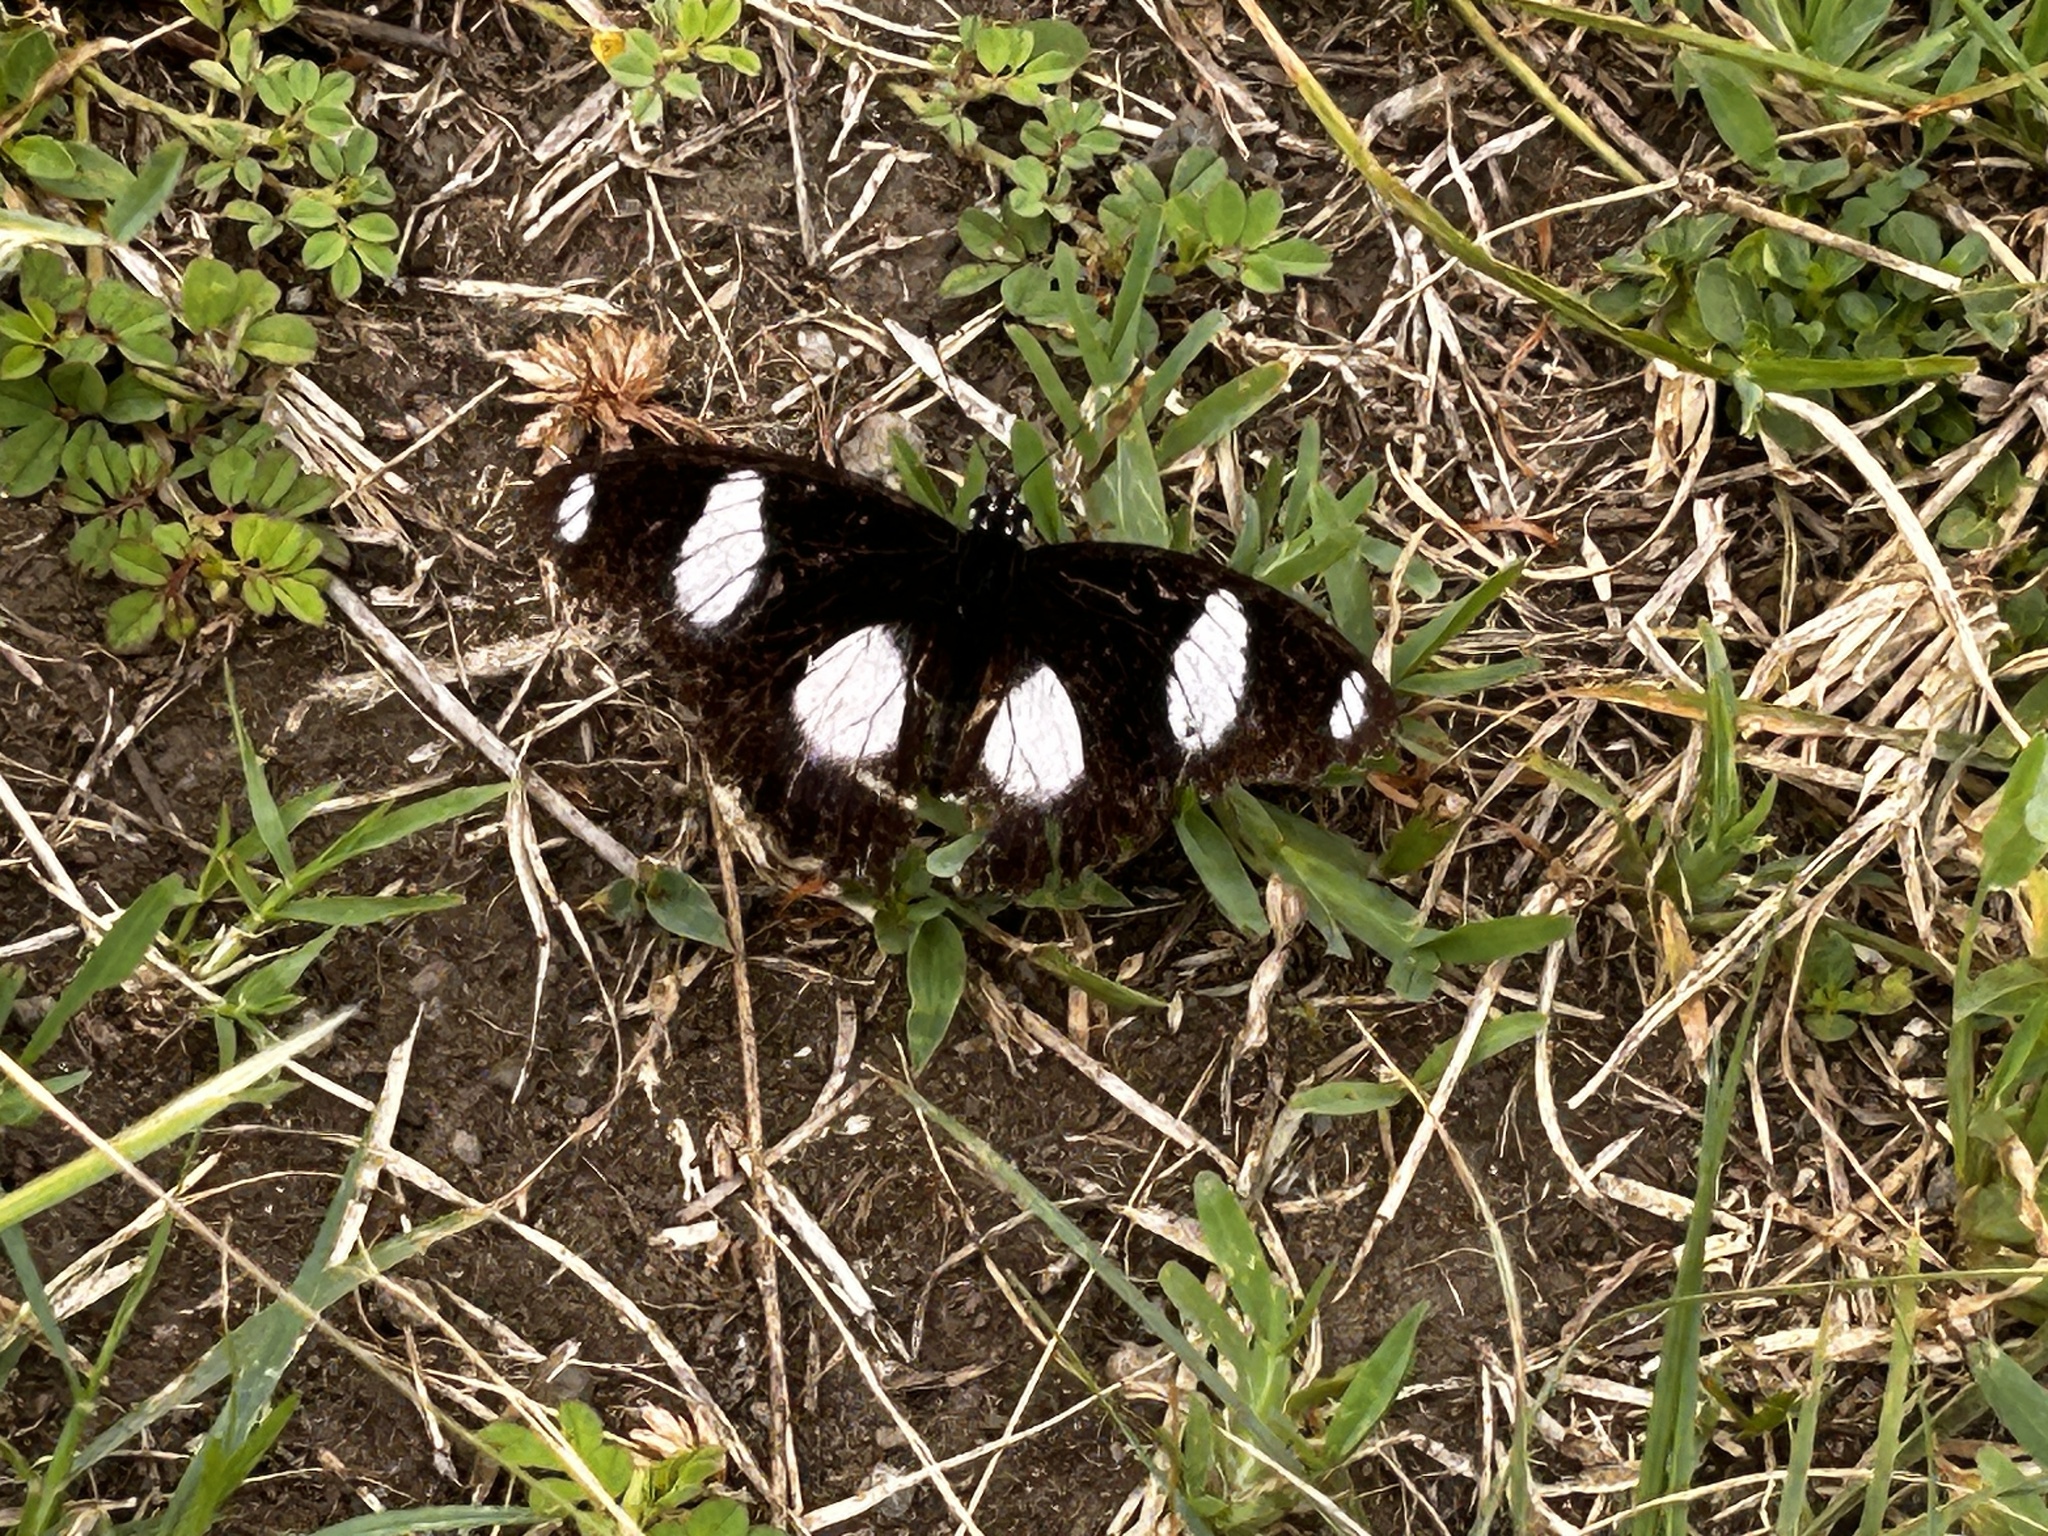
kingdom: Animalia
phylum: Arthropoda
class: Insecta
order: Lepidoptera
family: Nymphalidae
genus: Hypolimnas
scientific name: Hypolimnas misippus
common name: False plain tiger
